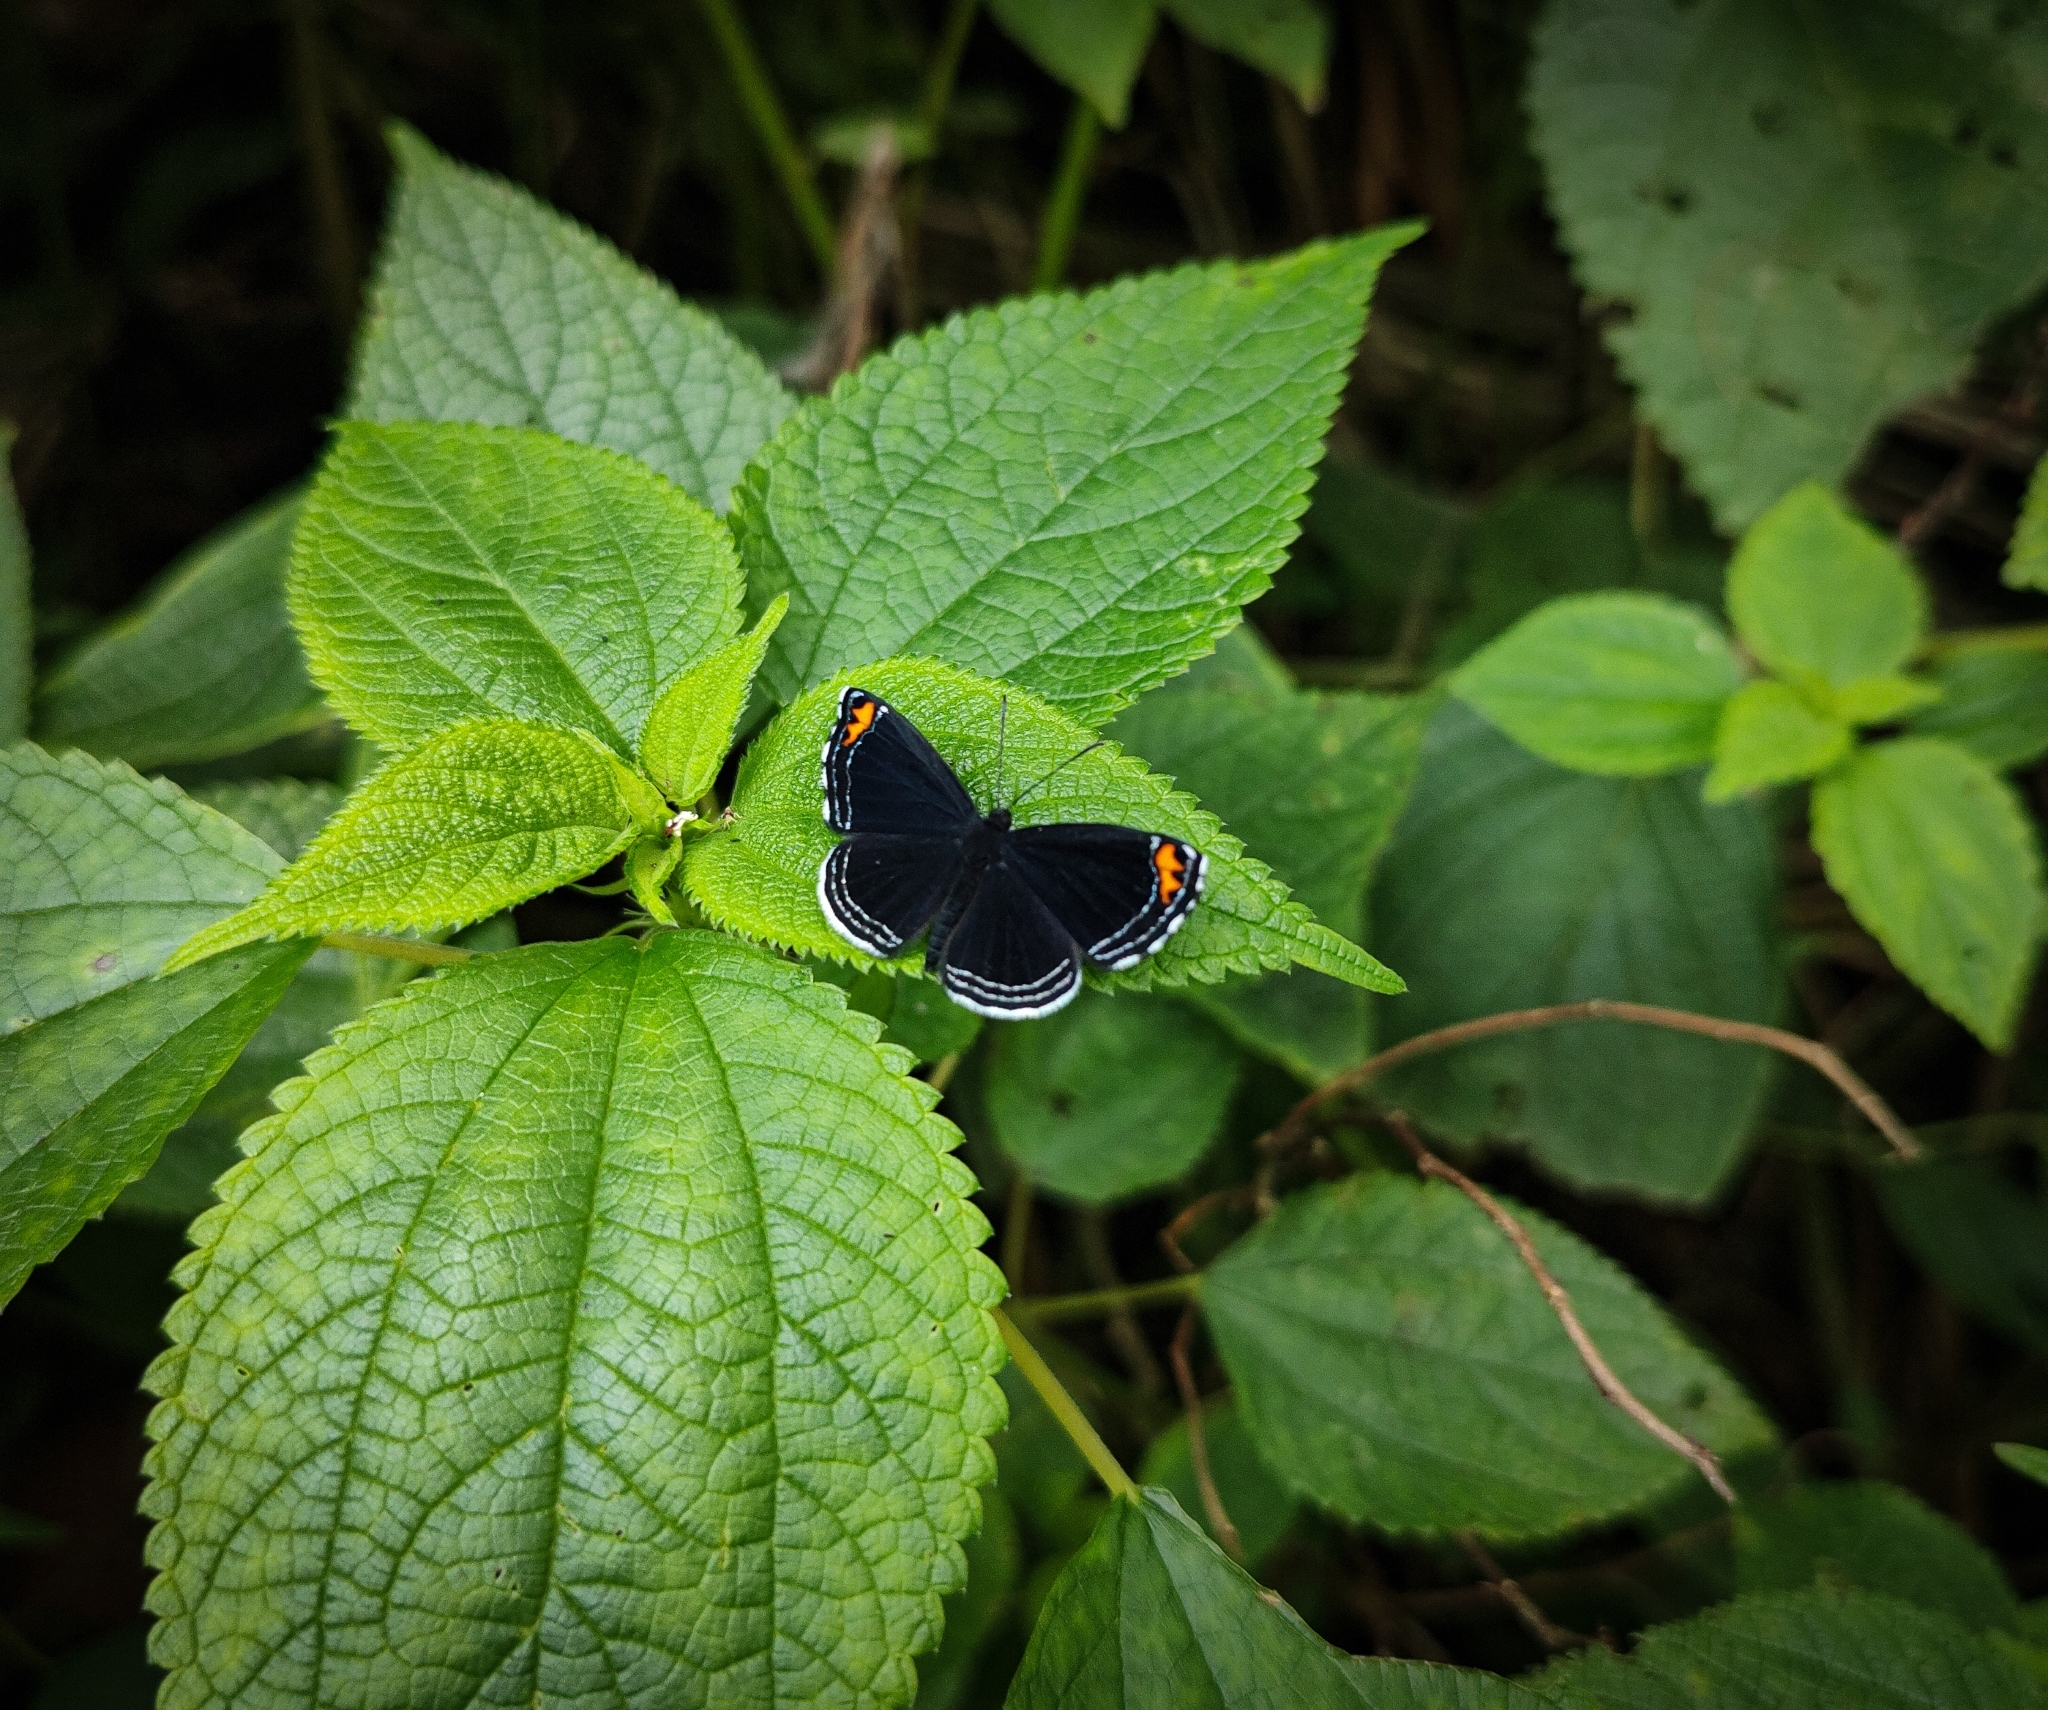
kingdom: Animalia
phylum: Arthropoda
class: Insecta
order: Lepidoptera
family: Riodinidae
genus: Nelone
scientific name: Nelone cadmeis
